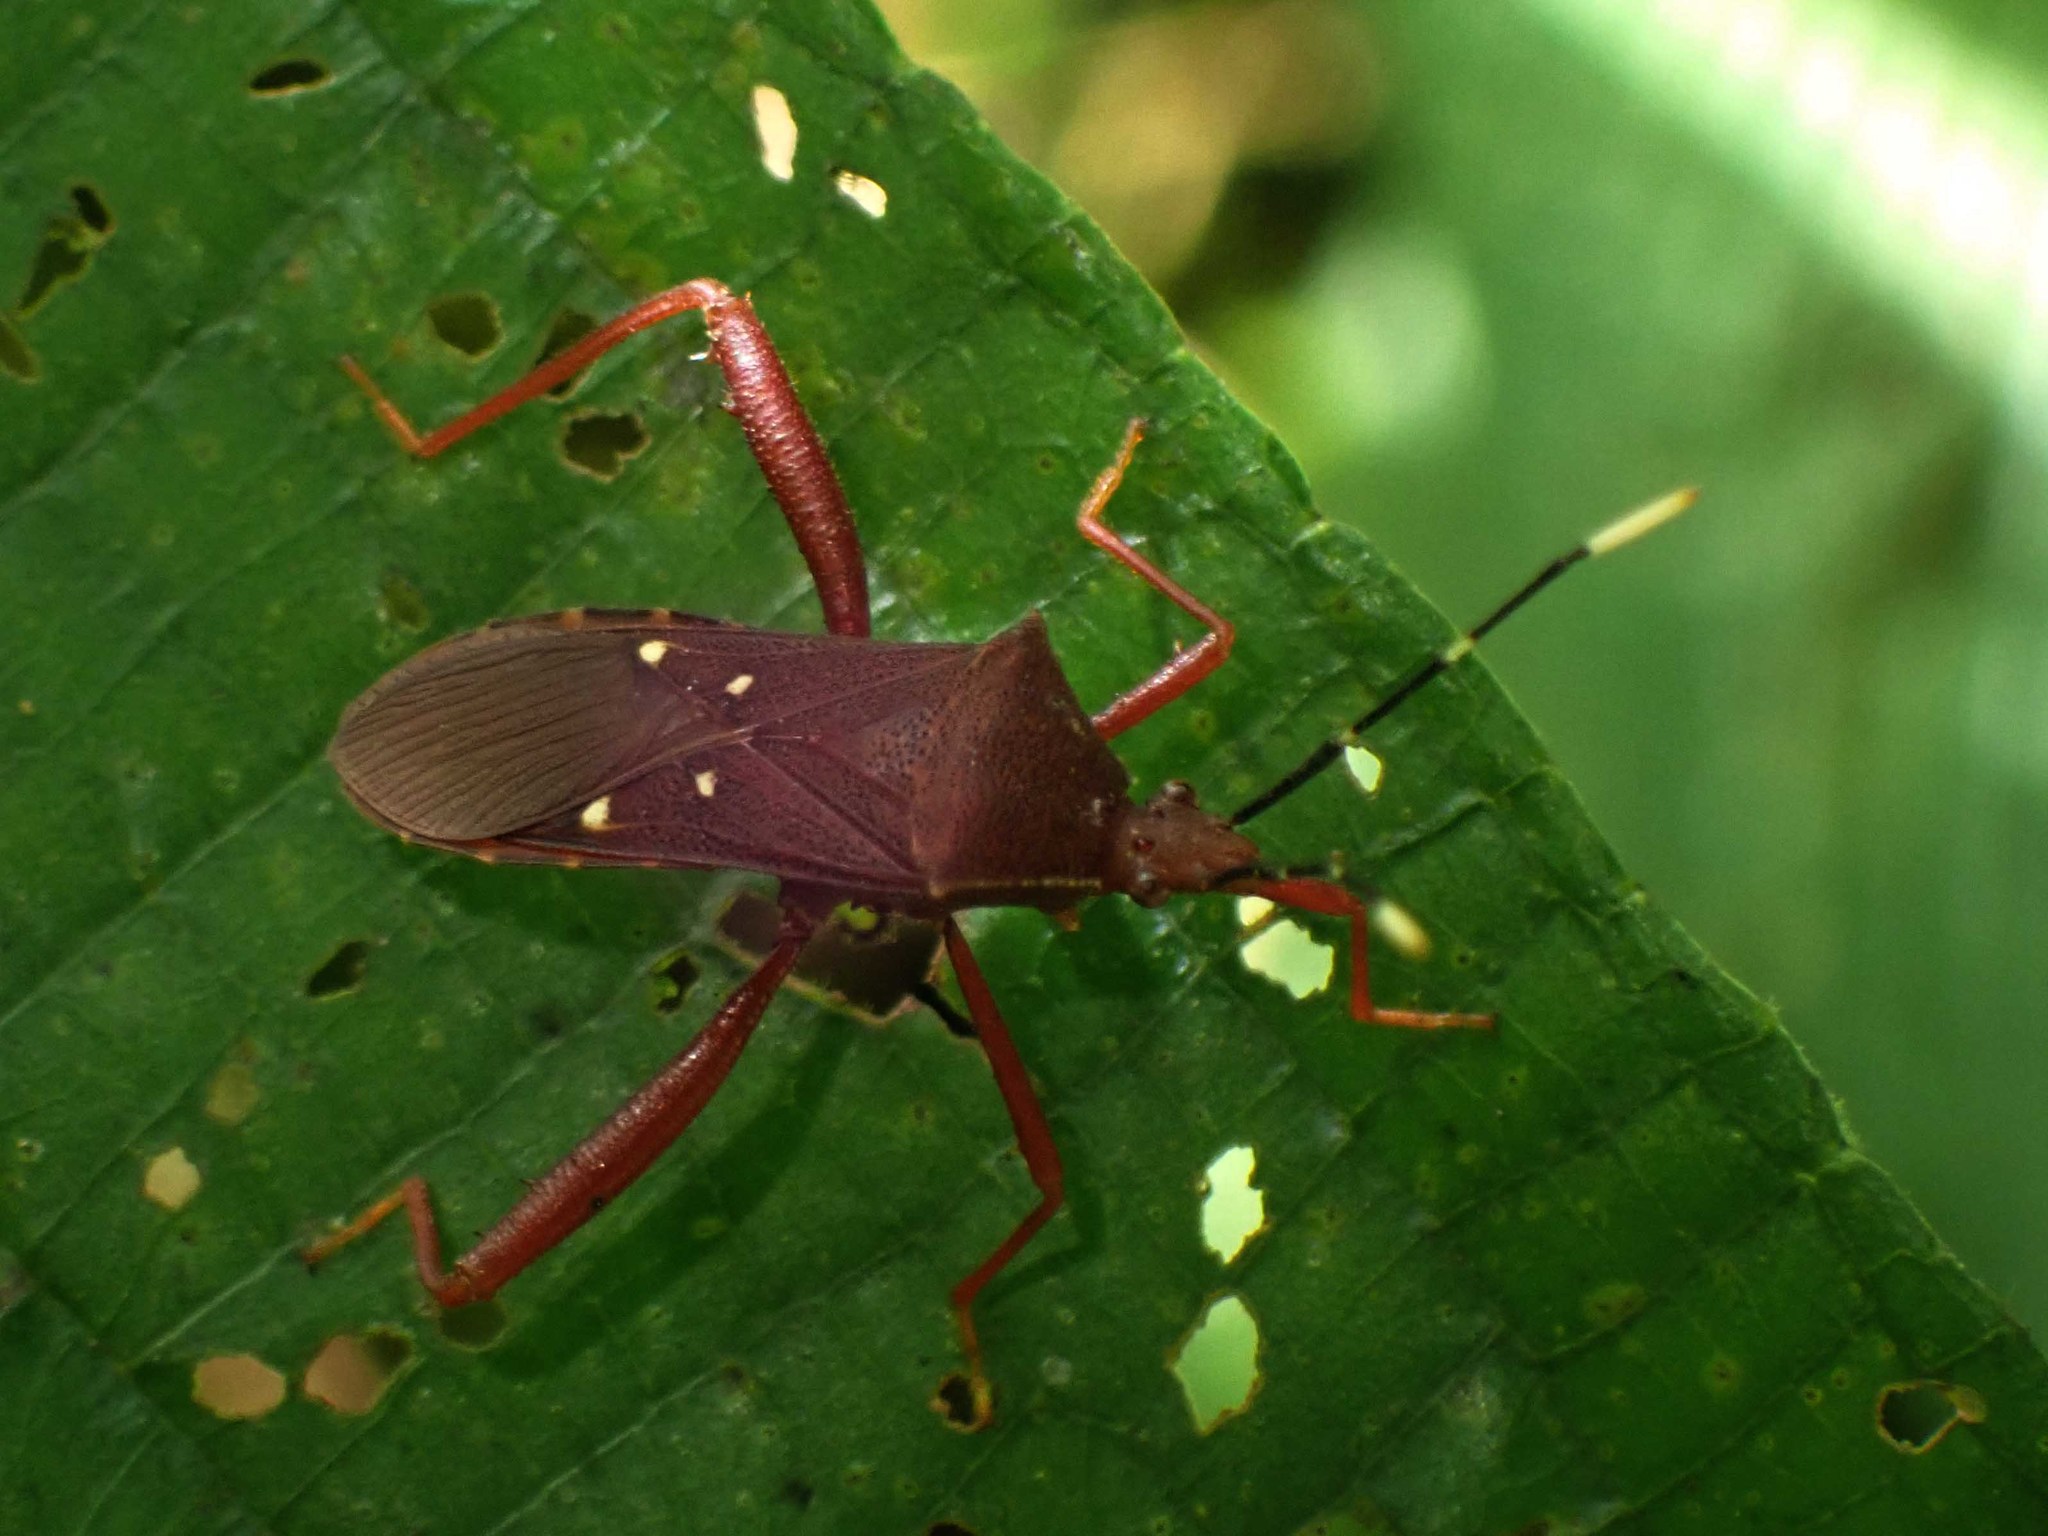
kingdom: Animalia
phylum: Arthropoda
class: Insecta
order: Hemiptera
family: Coreidae
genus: Leptoscelis
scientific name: Leptoscelis quadrisignatus
